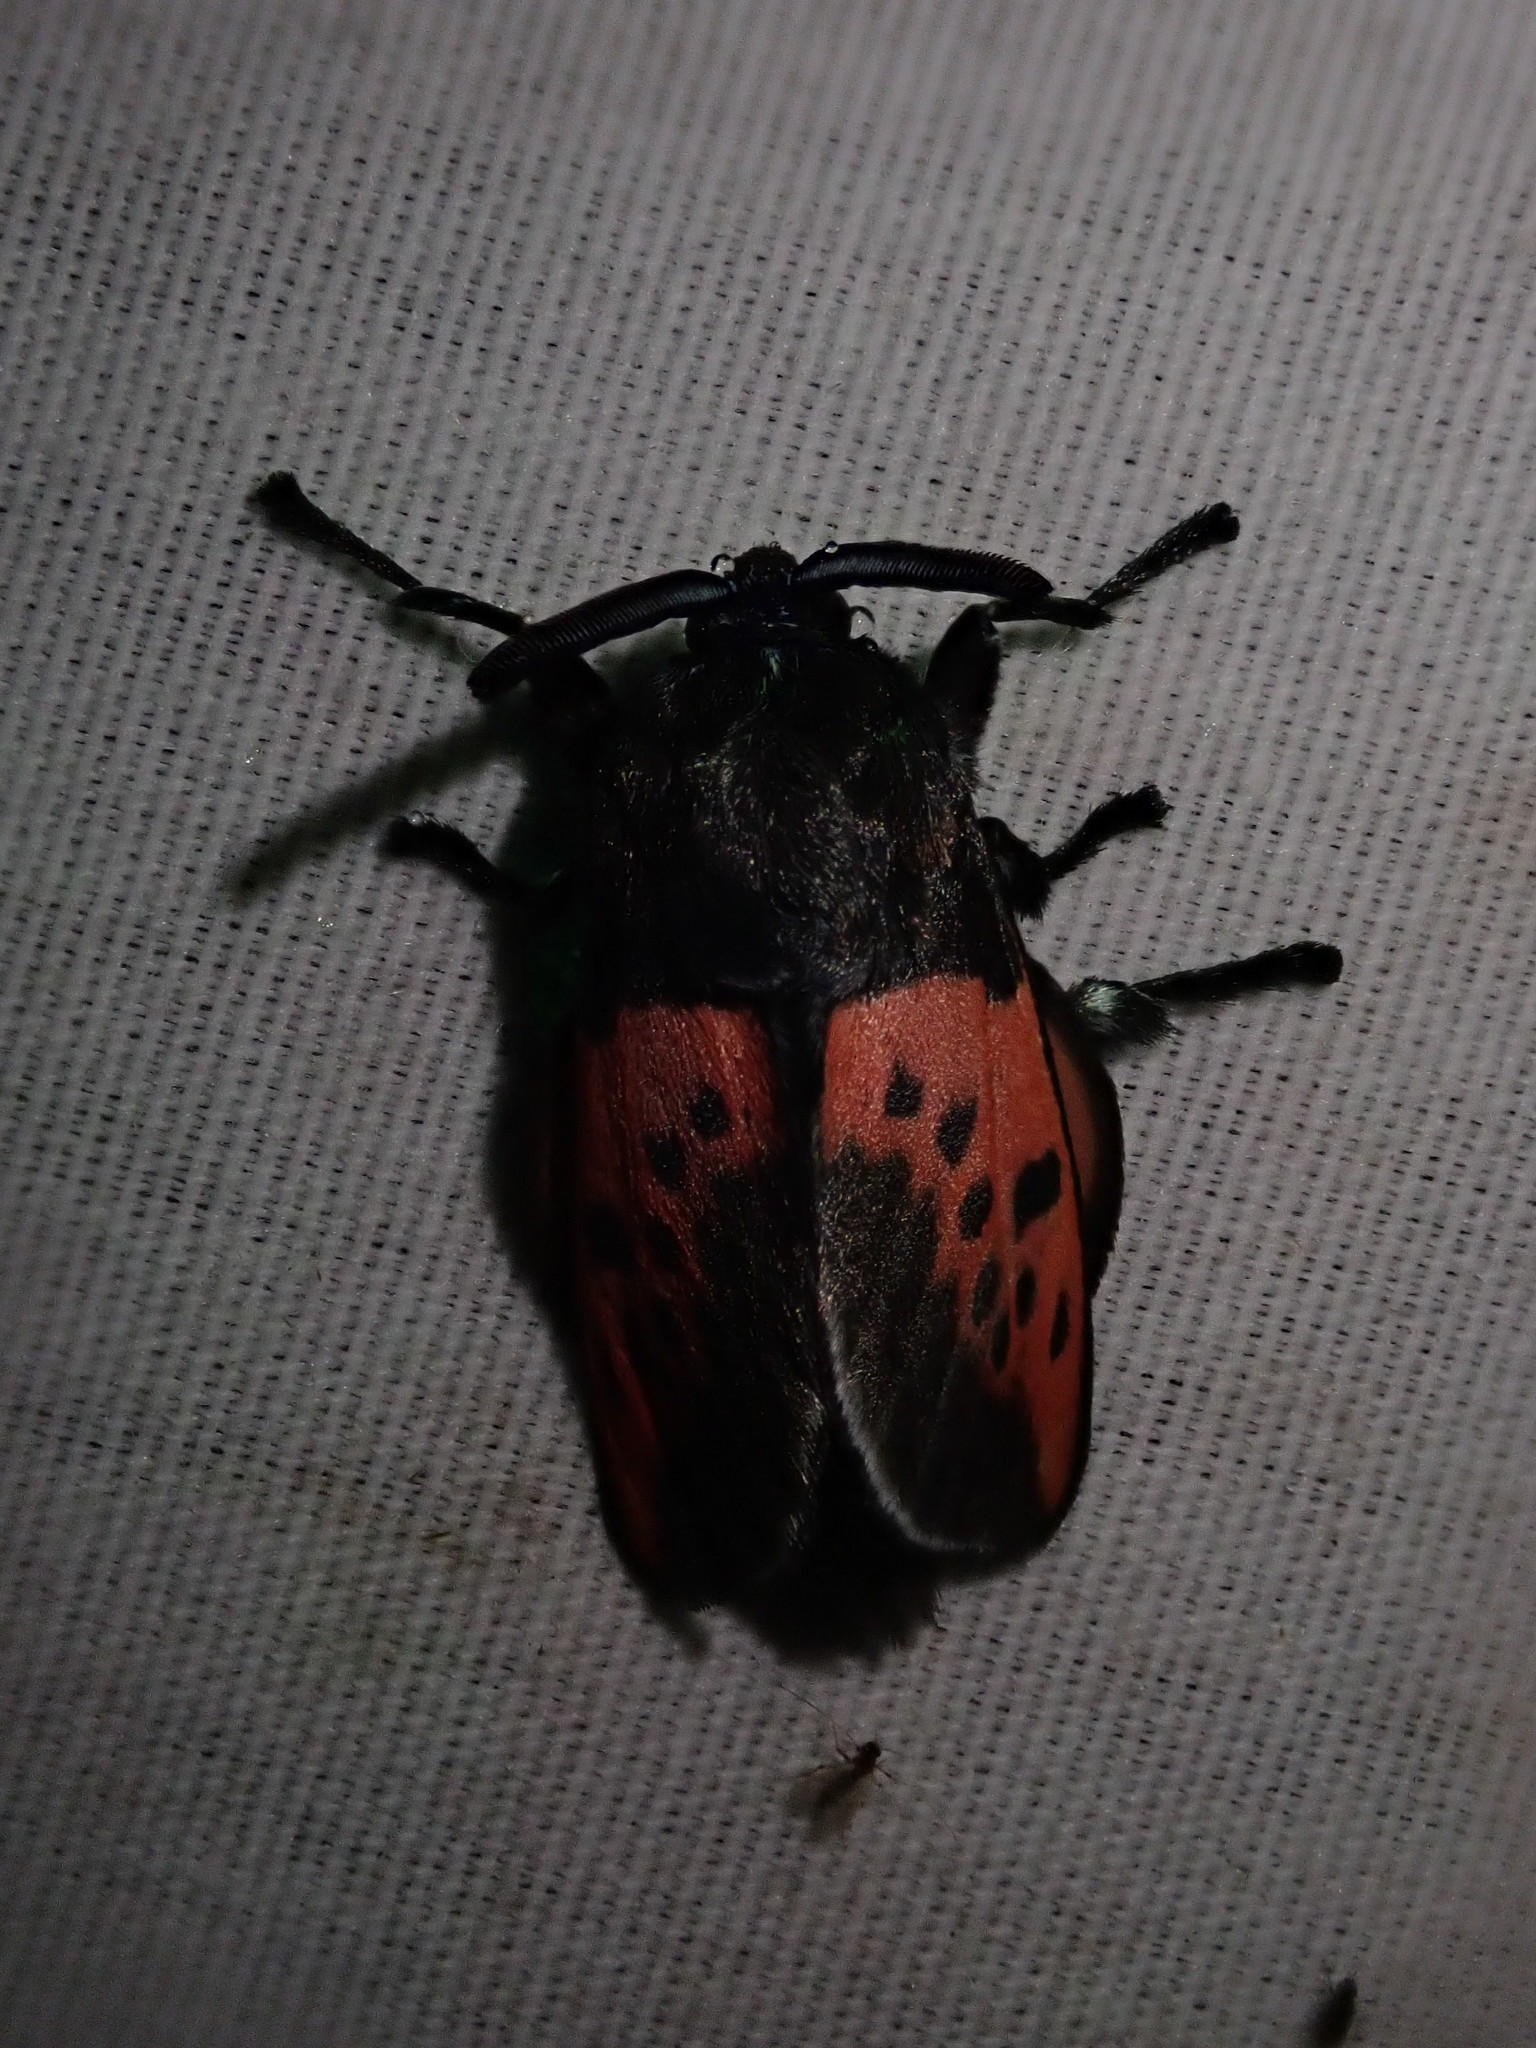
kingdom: Animalia
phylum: Arthropoda
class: Insecta
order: Lepidoptera
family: Megalopygidae
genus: Langucys
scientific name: Langucys onorei
